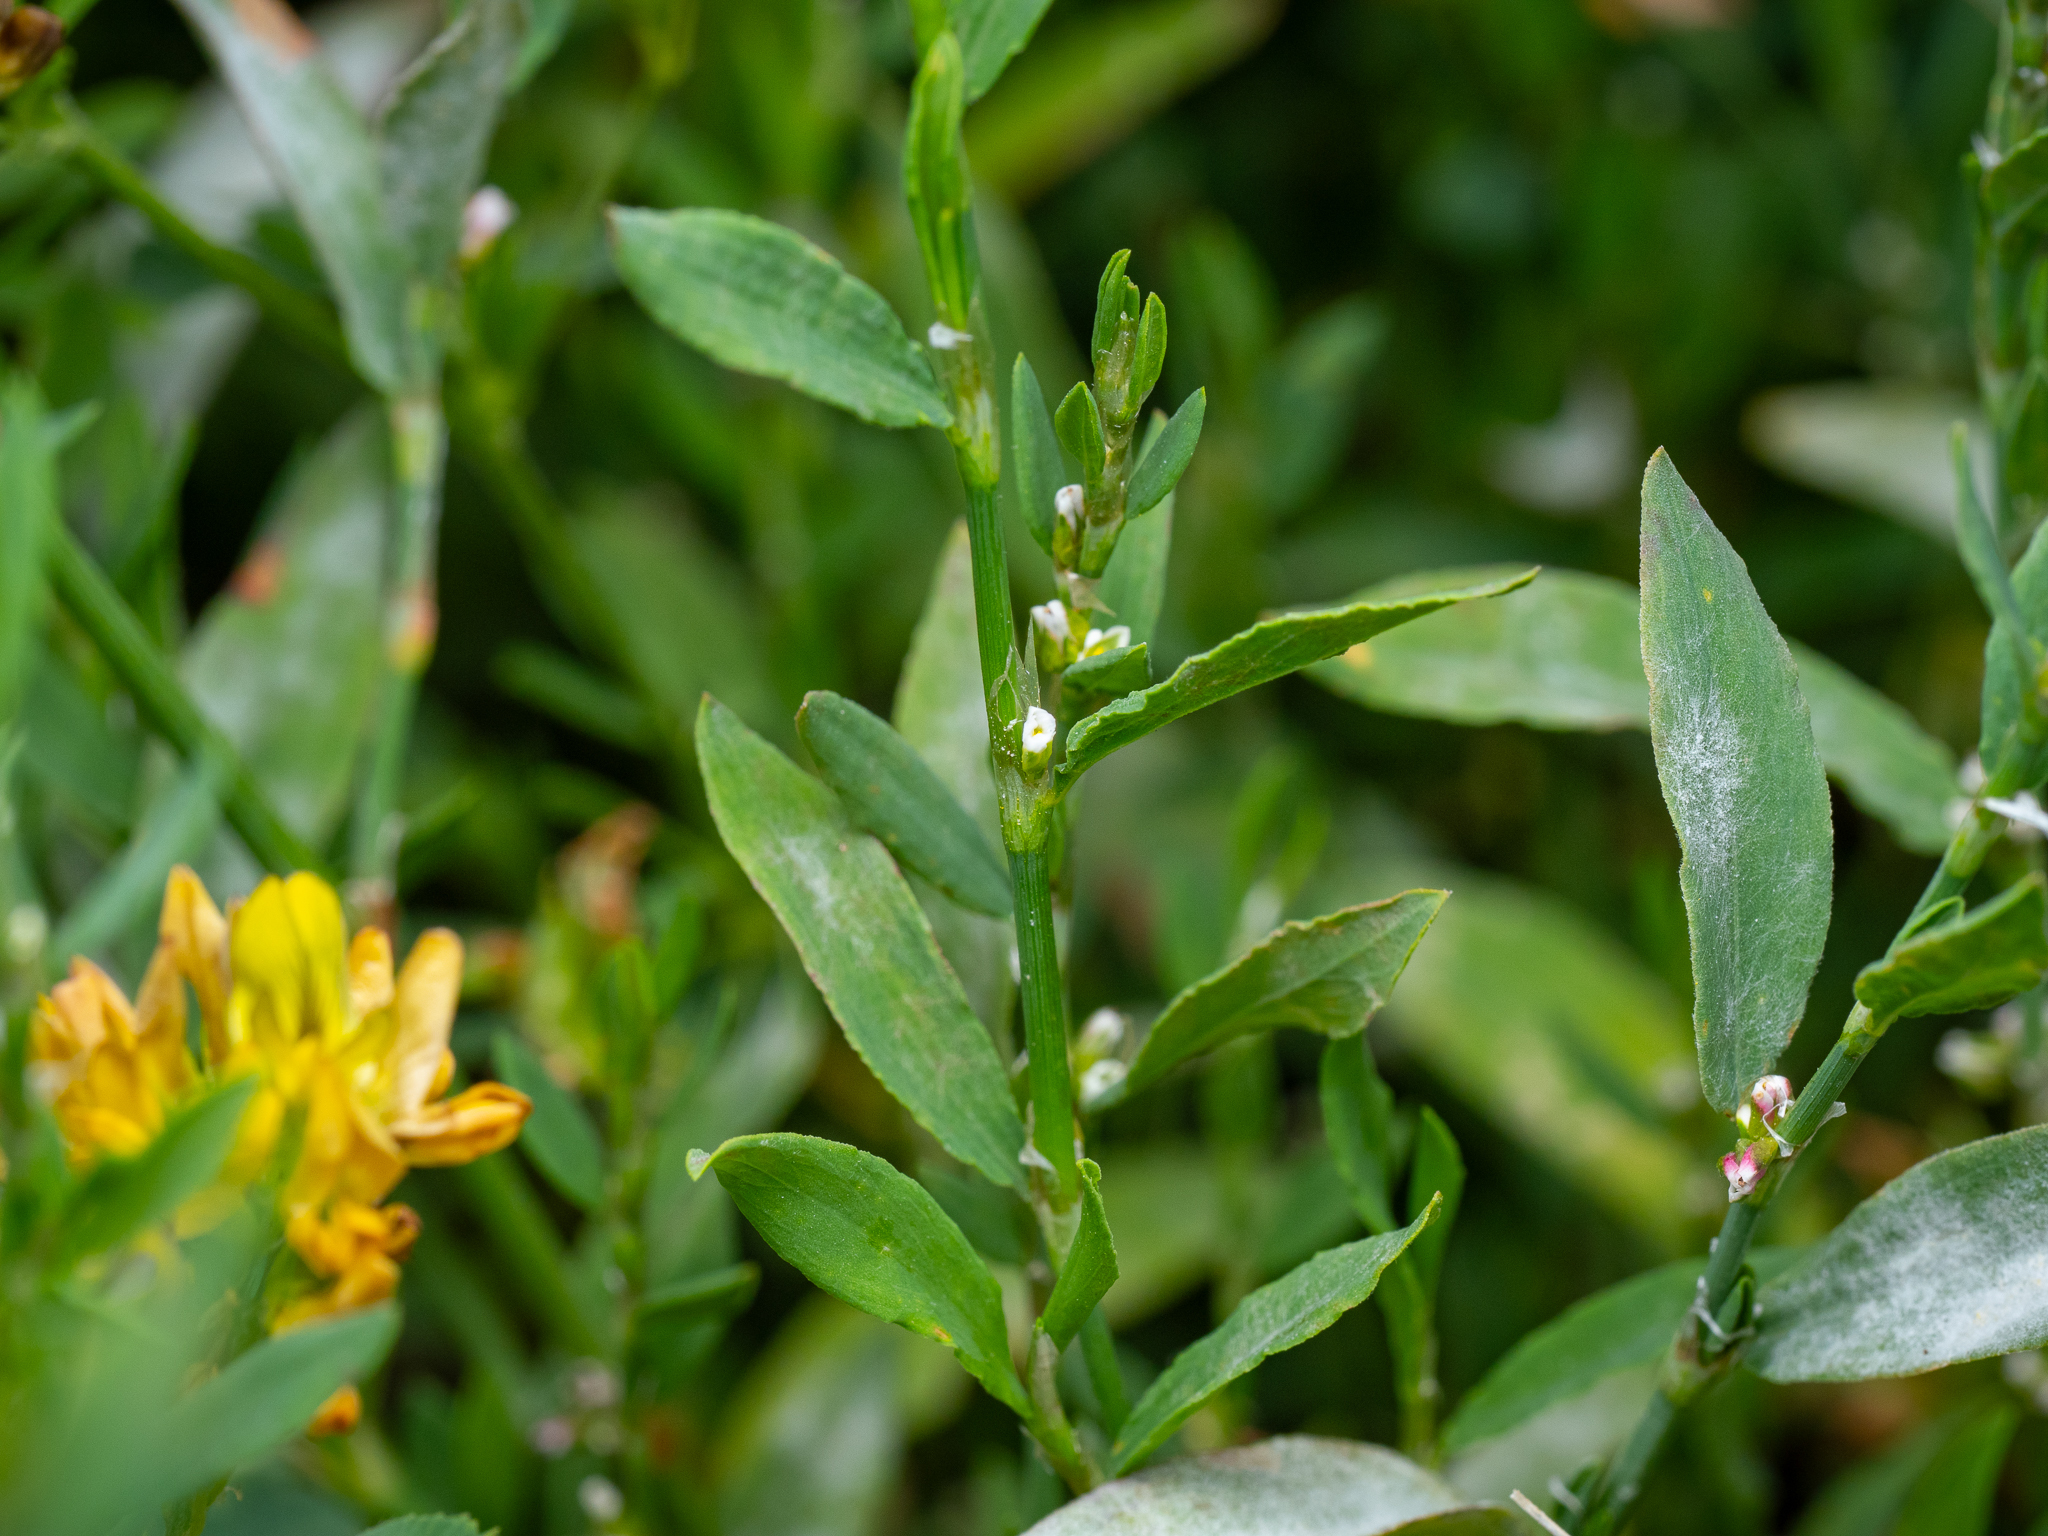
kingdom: Plantae
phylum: Tracheophyta
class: Magnoliopsida
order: Caryophyllales
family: Polygonaceae
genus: Polygonum
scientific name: Polygonum aviculare
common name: Prostrate knotweed
